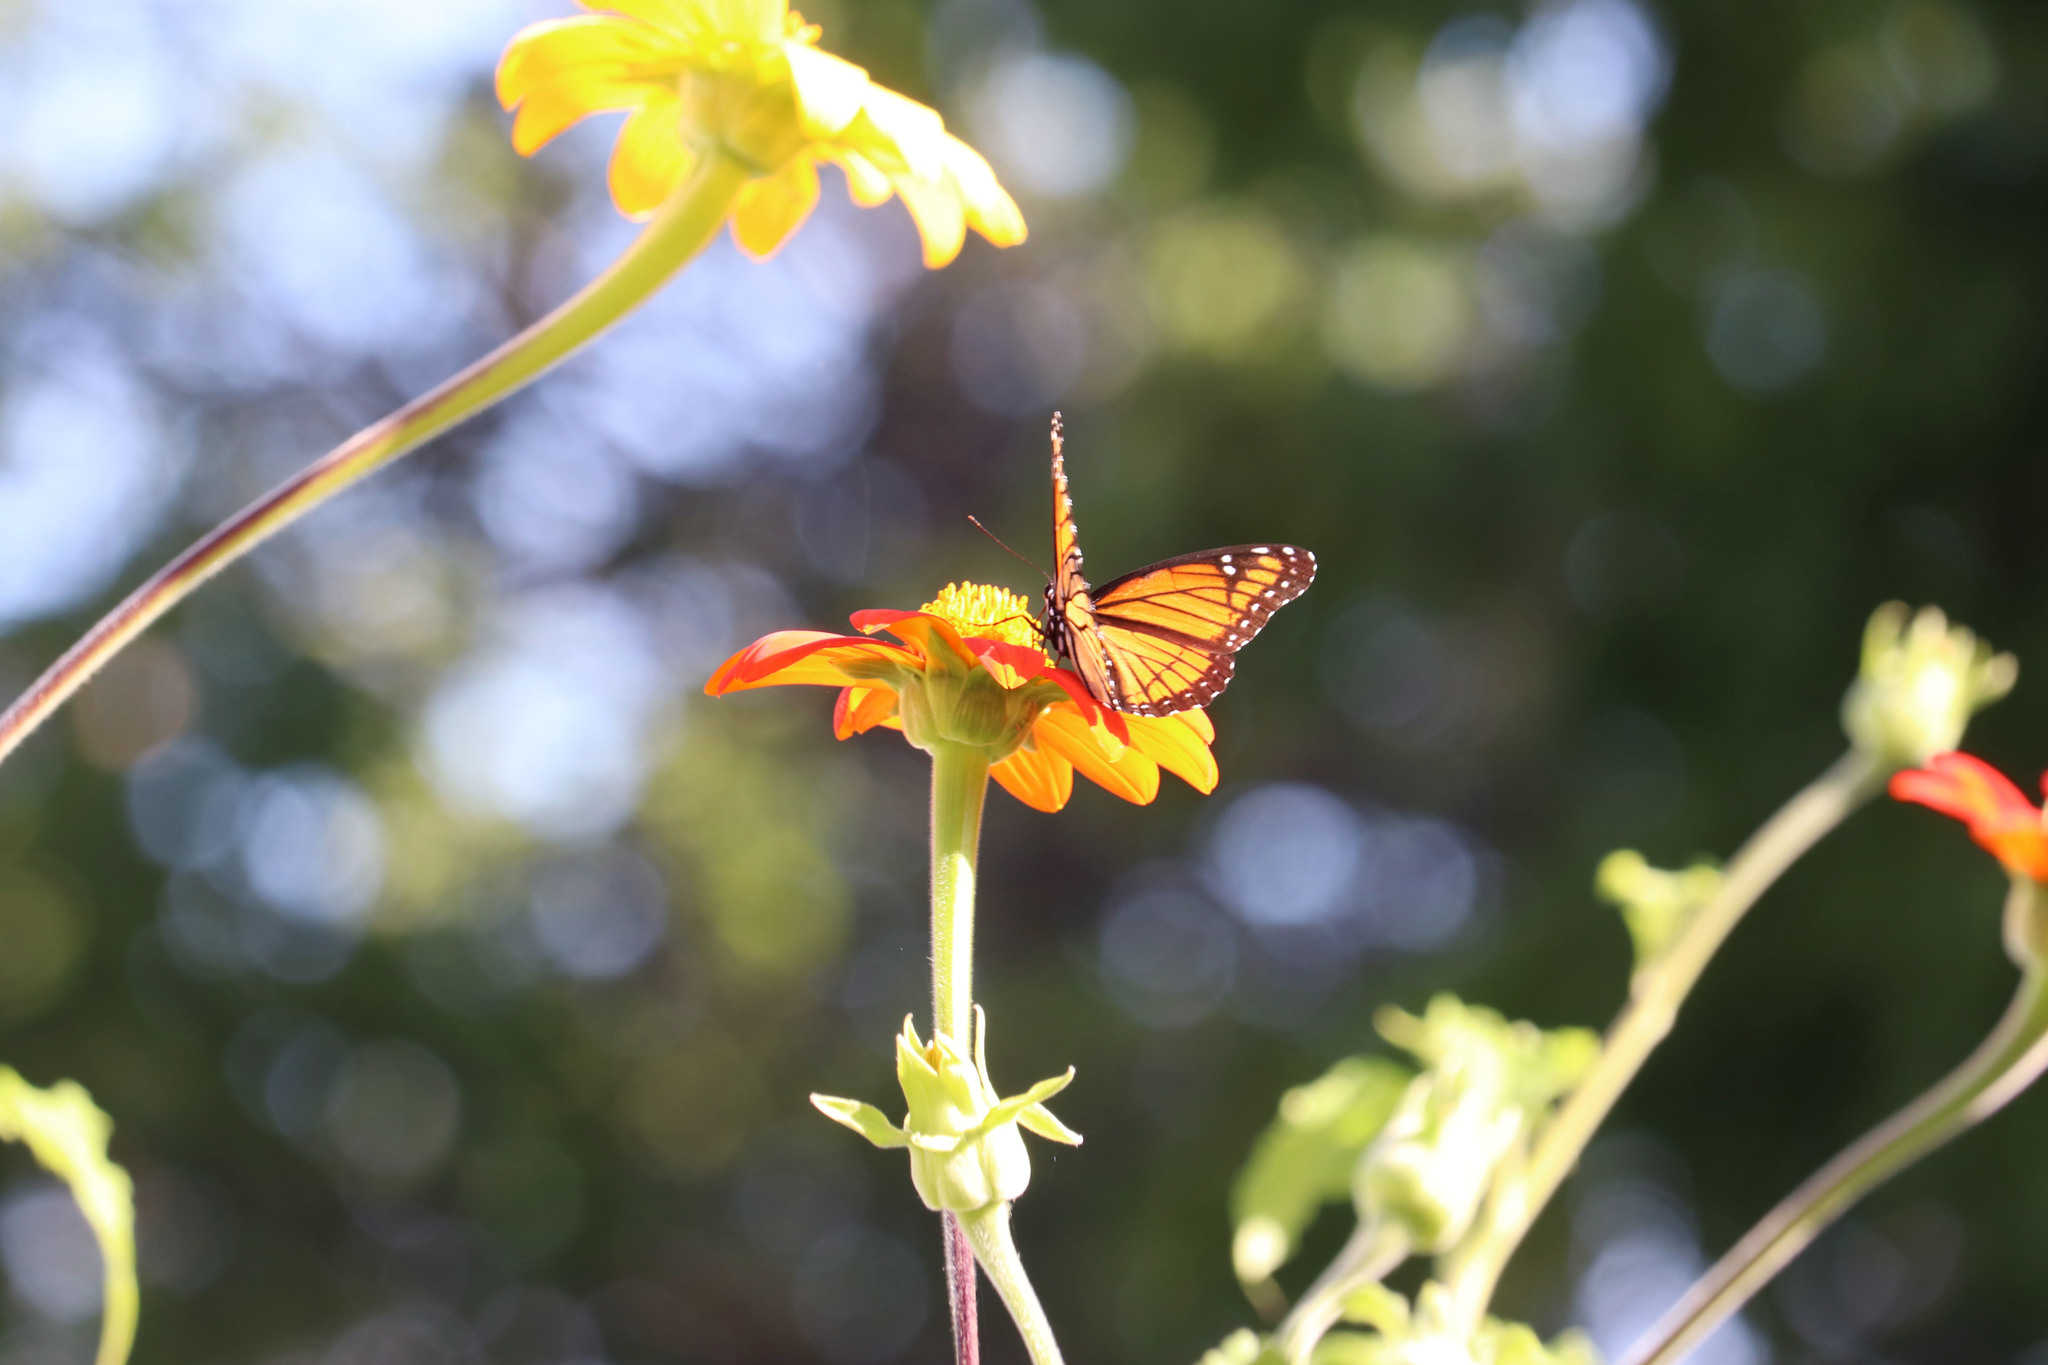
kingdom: Animalia
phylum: Arthropoda
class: Insecta
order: Lepidoptera
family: Nymphalidae
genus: Limenitis
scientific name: Limenitis archippus
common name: Viceroy
